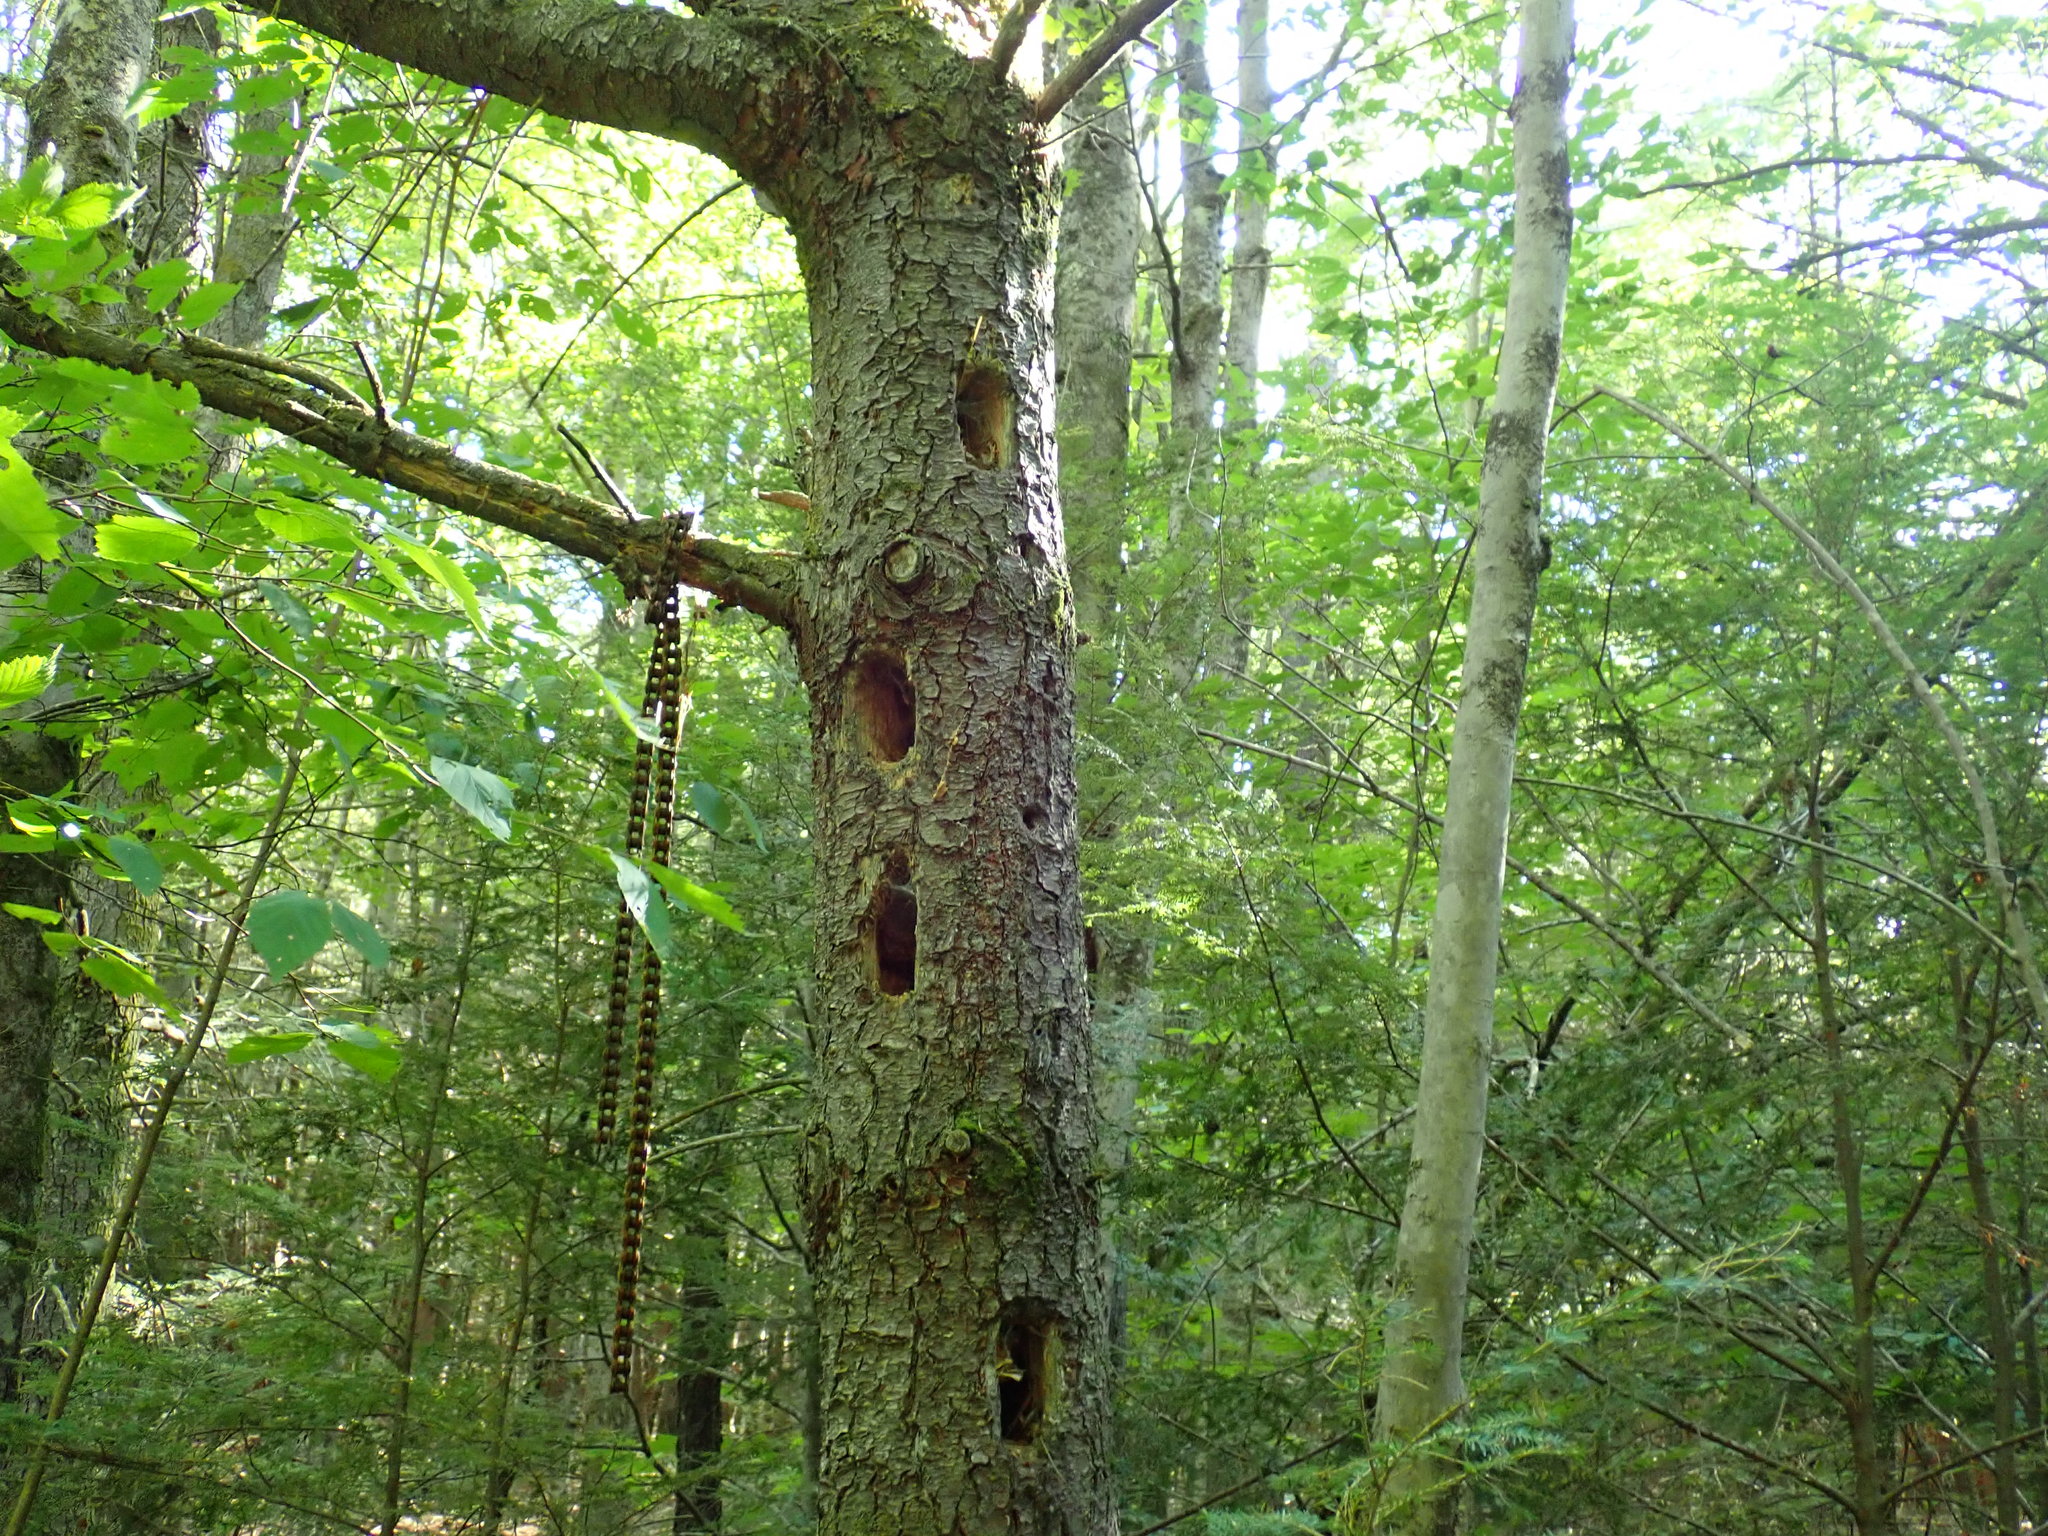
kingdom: Animalia
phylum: Chordata
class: Aves
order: Piciformes
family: Picidae
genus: Dryocopus
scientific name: Dryocopus pileatus
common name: Pileated woodpecker
